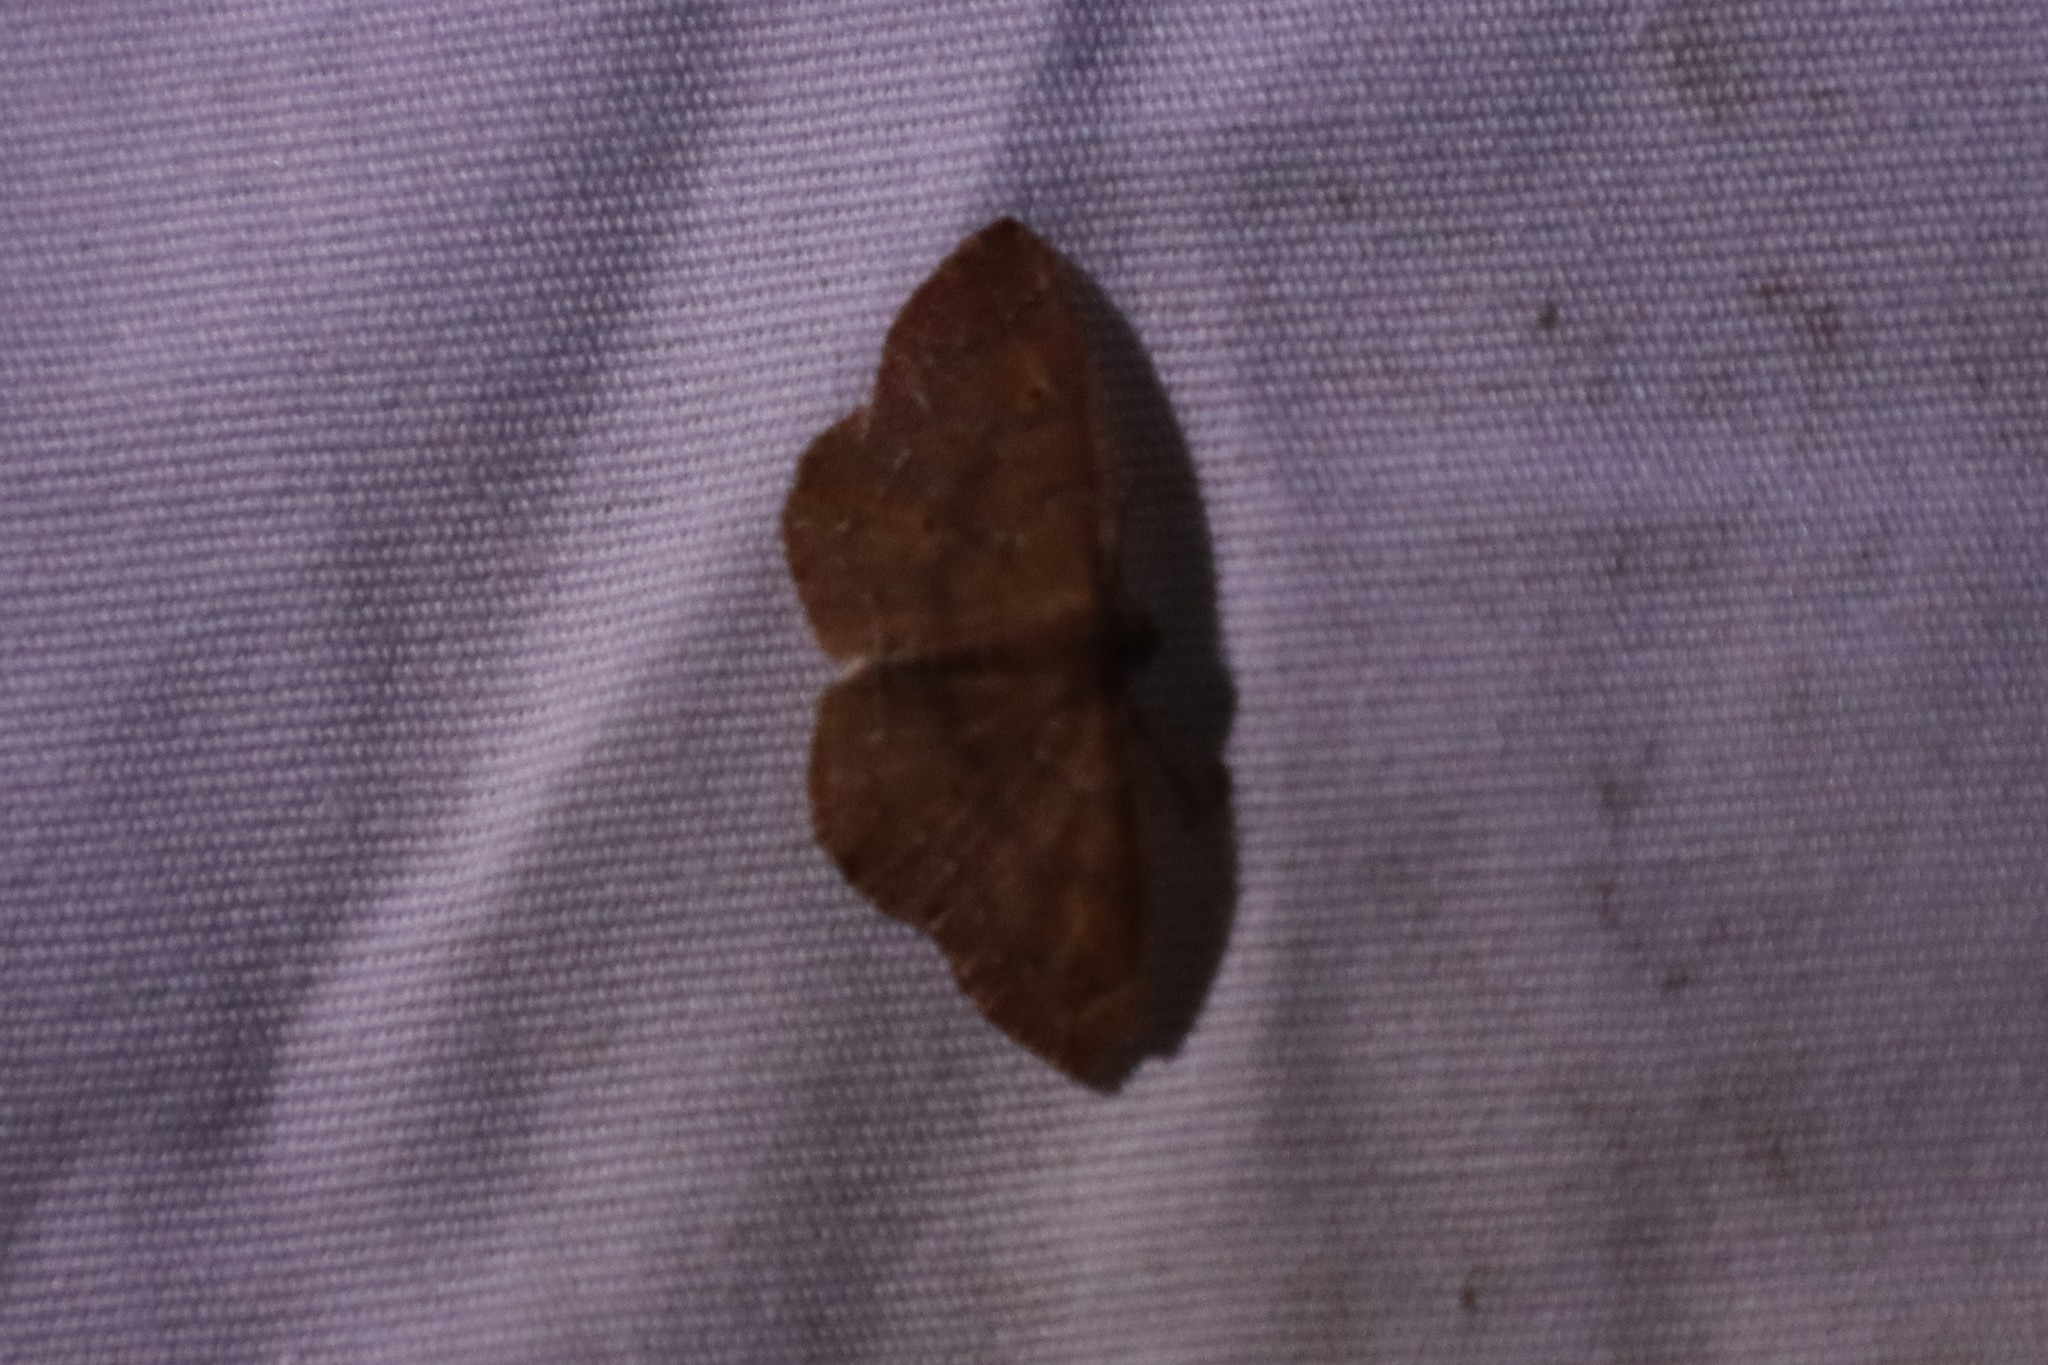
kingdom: Animalia
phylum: Arthropoda
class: Insecta
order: Lepidoptera
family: Geometridae
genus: Ilexia
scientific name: Ilexia intractata
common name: Black-dotted ruddy moth
